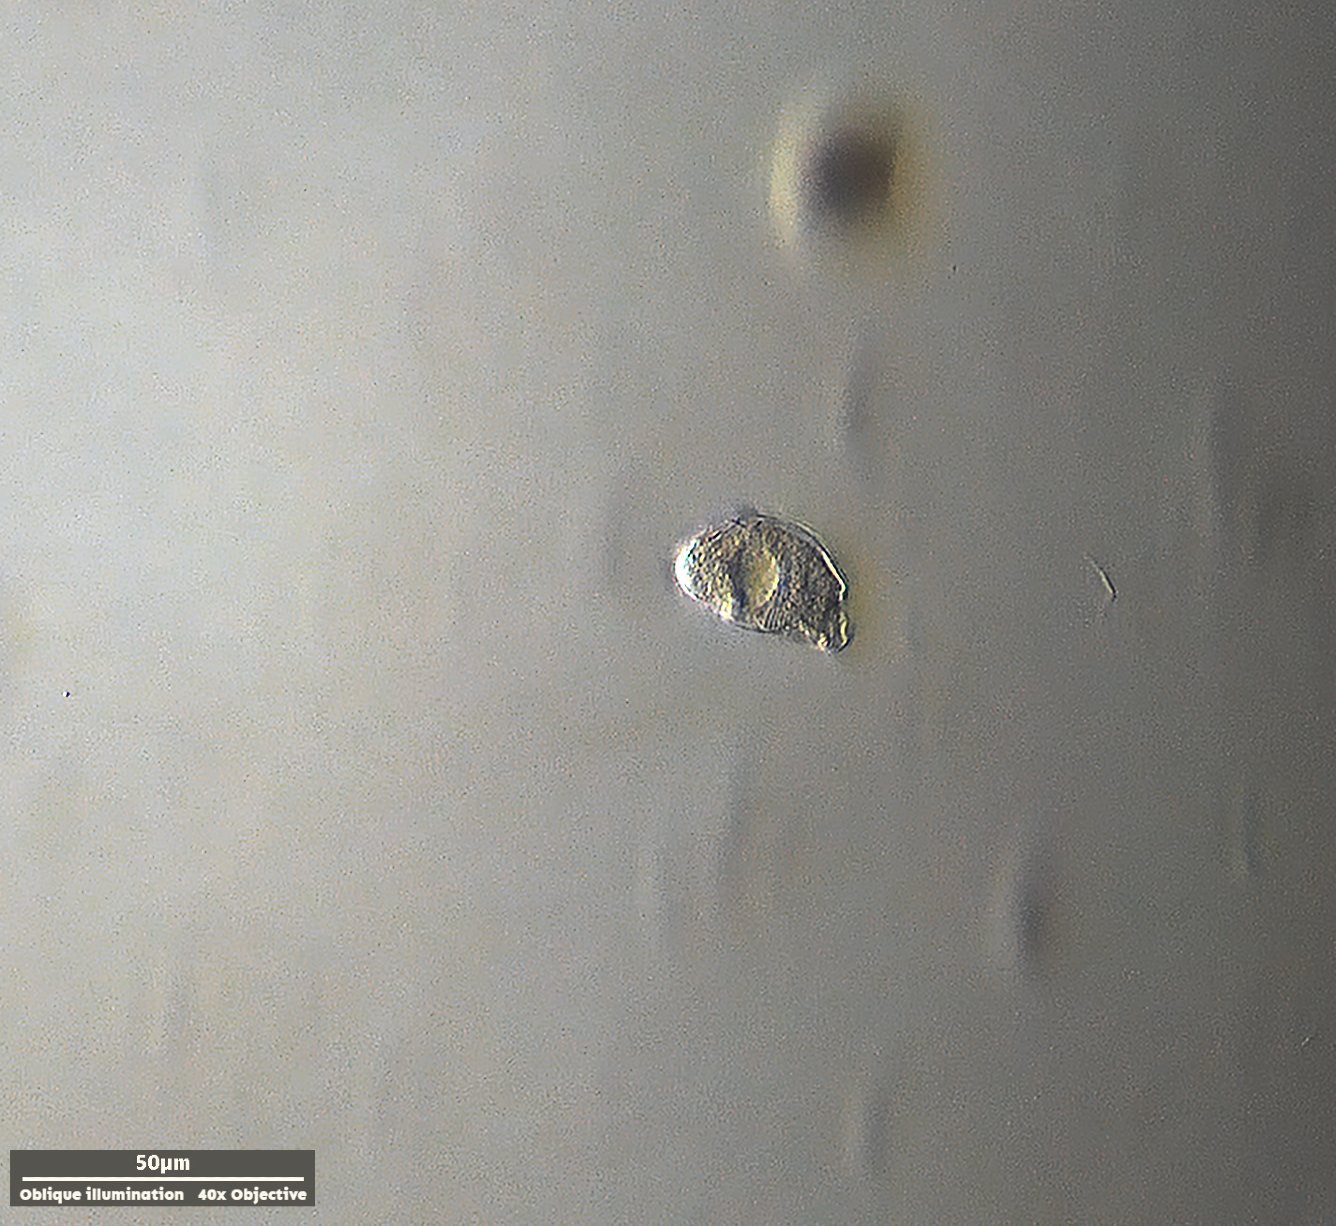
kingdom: Chromista
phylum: Ciliophora
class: Cyrtophoria
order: Cyrtophorida
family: Chilodonellidae
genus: Odontochlamys
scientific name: Odontochlamys gouraudi
